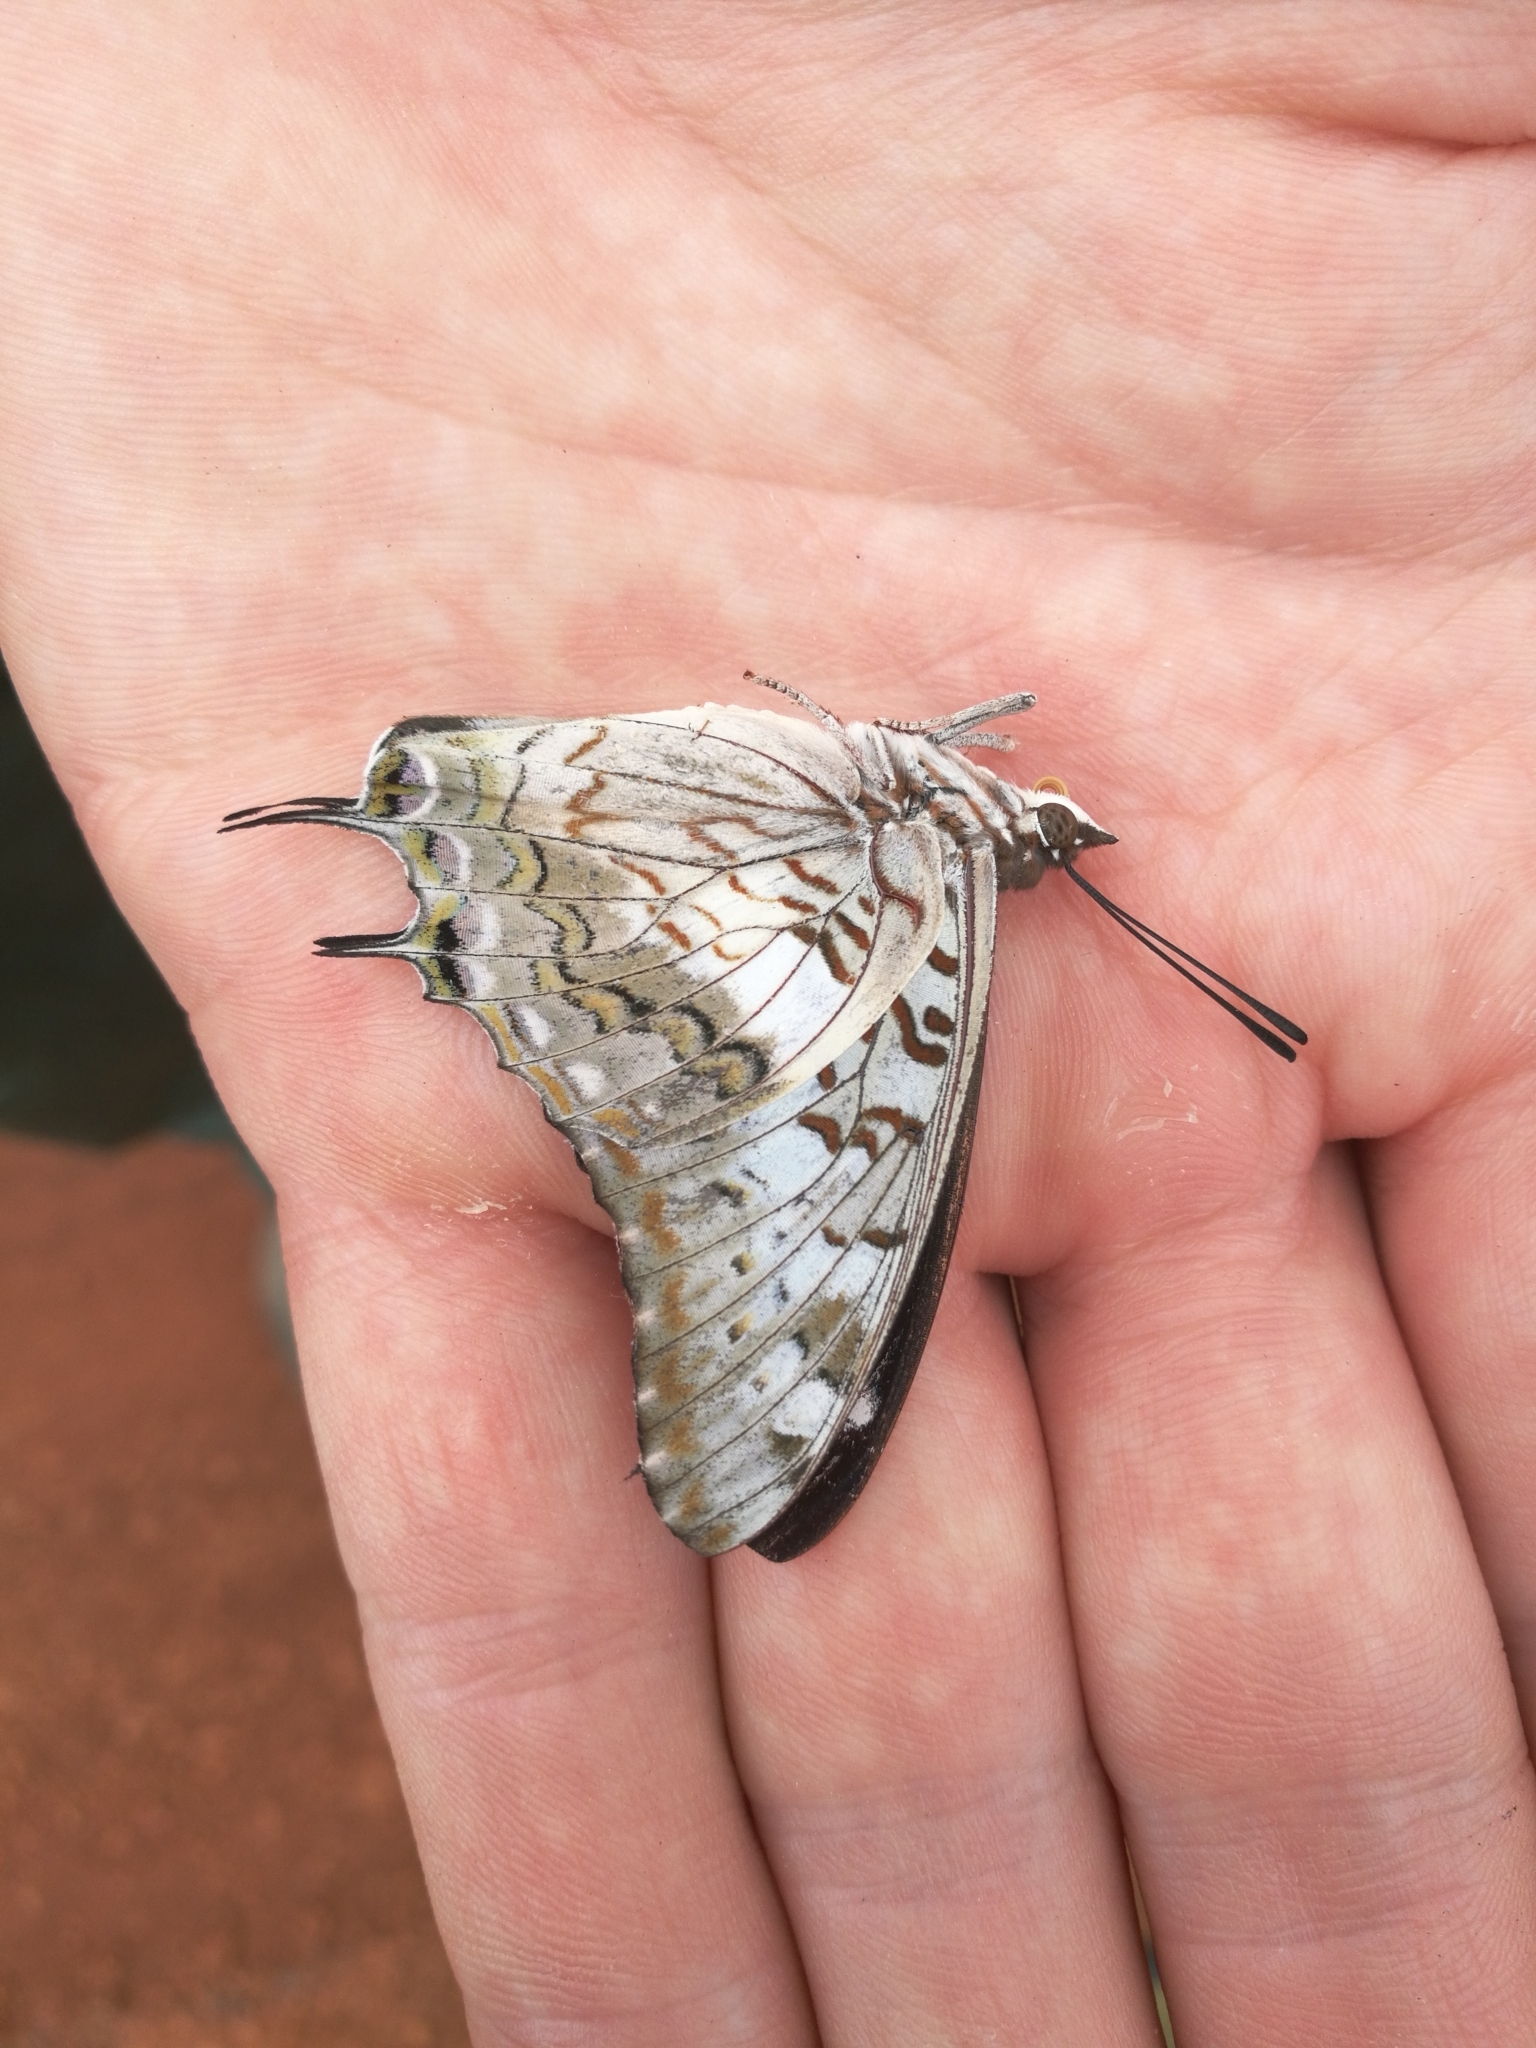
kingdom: Animalia
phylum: Arthropoda
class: Insecta
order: Lepidoptera
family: Nymphalidae
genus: Charaxes
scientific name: Charaxes achaemenes
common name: Bushveld charaxes
